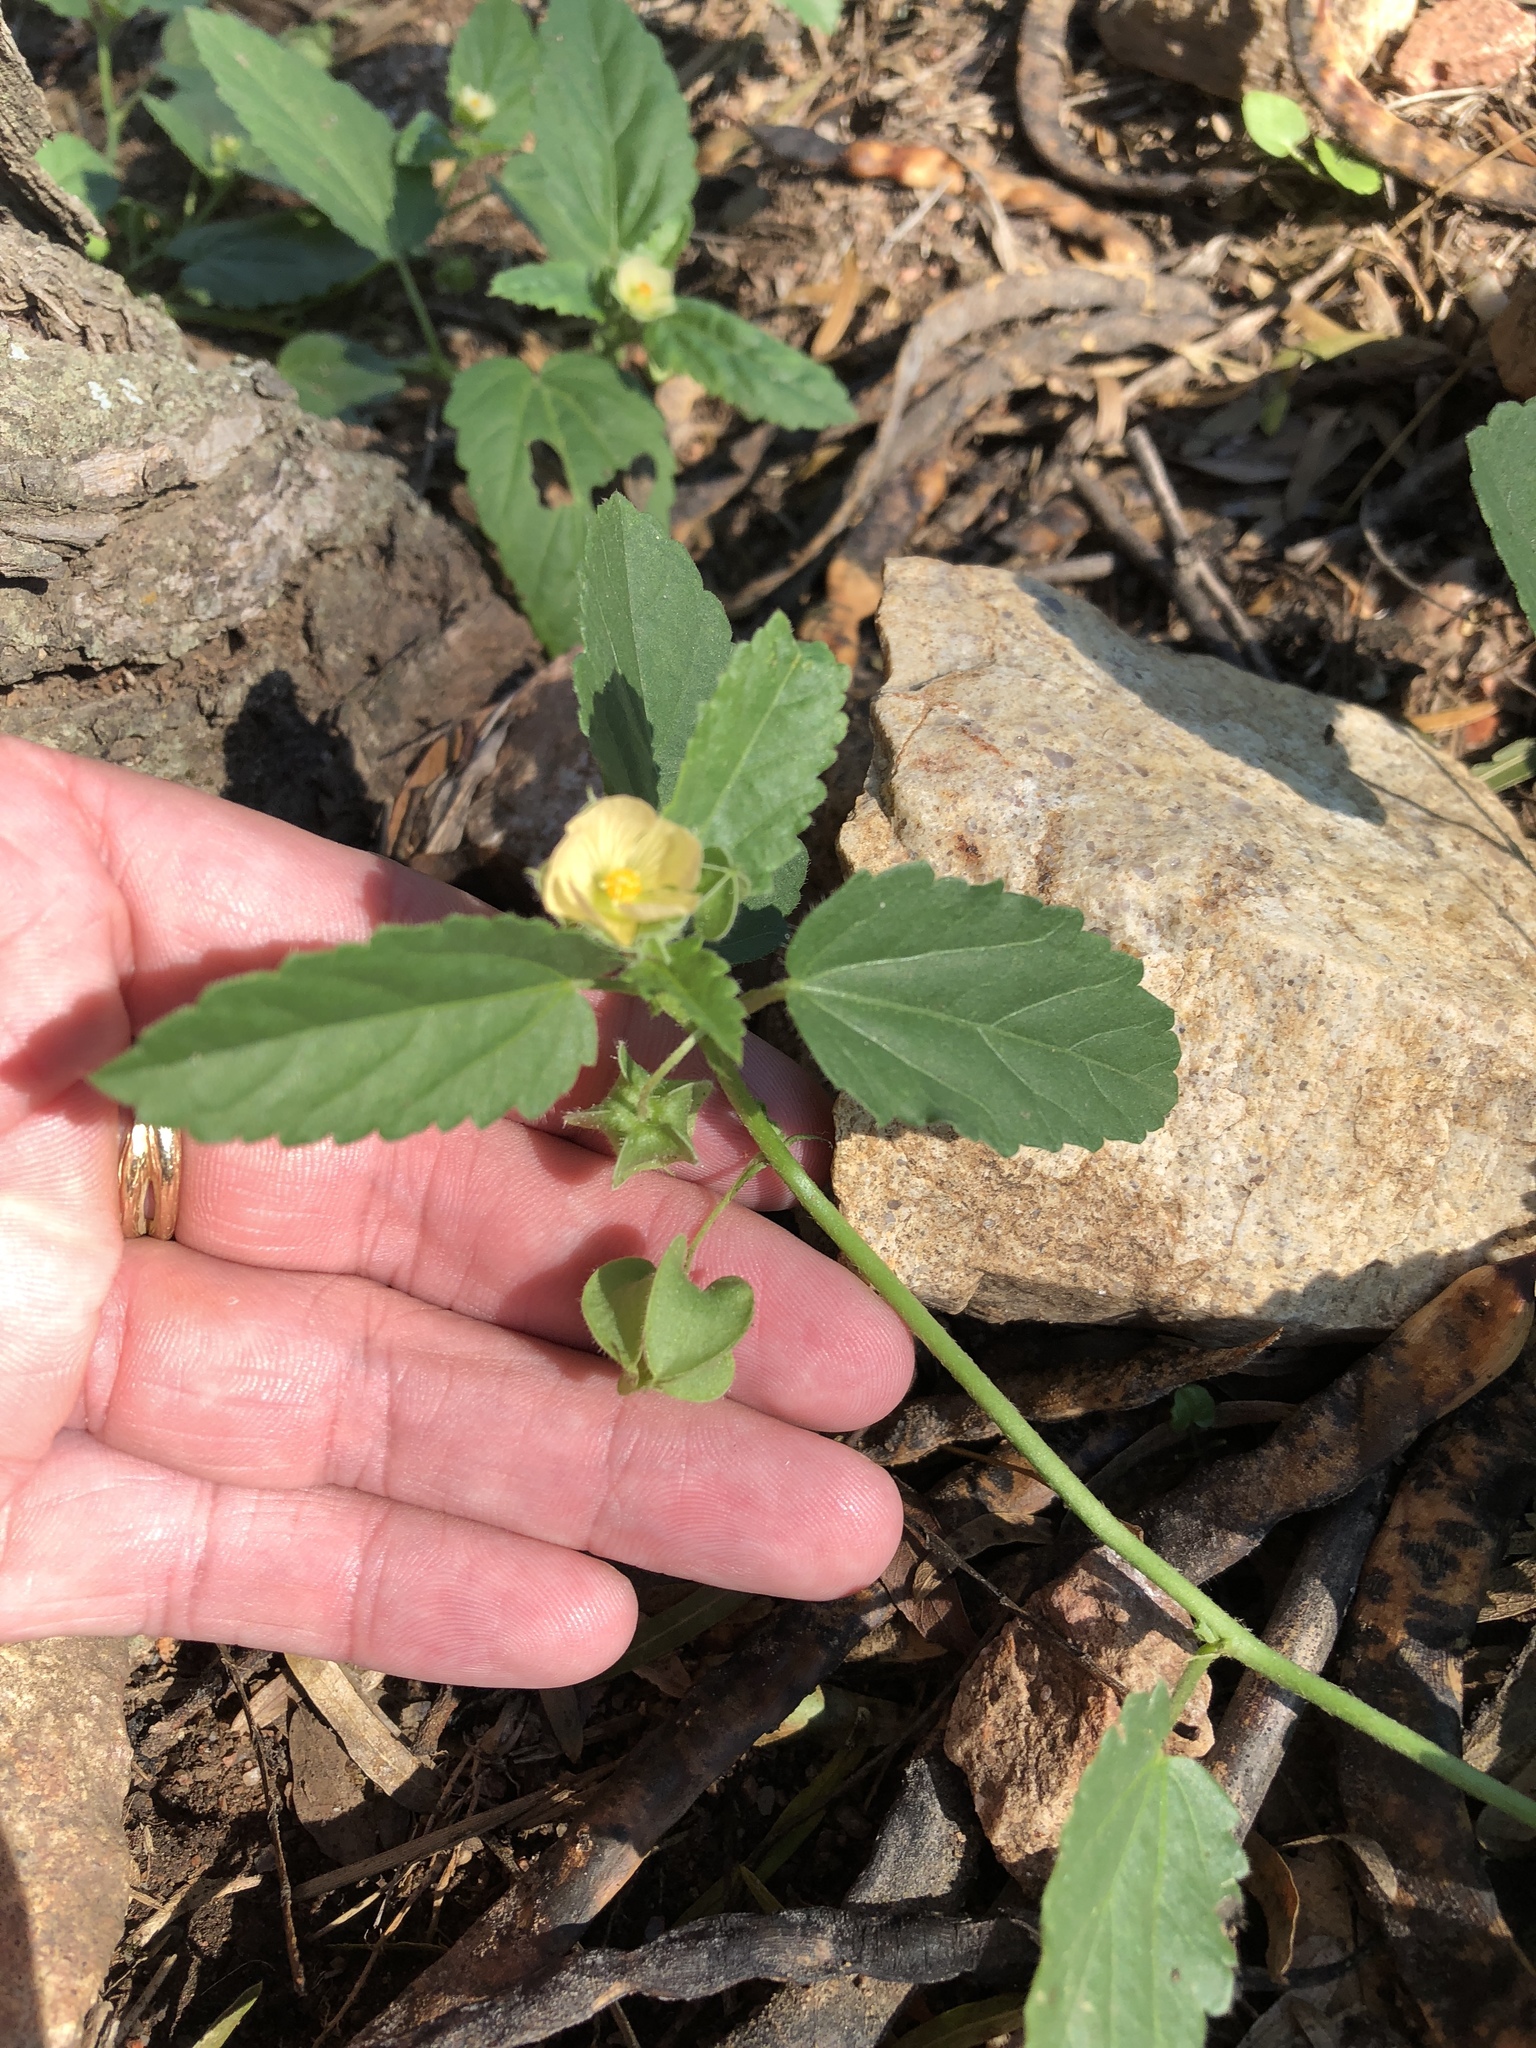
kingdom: Plantae
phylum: Tracheophyta
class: Magnoliopsida
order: Malvales
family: Malvaceae
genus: Rhynchosida
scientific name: Rhynchosida physocalyx
